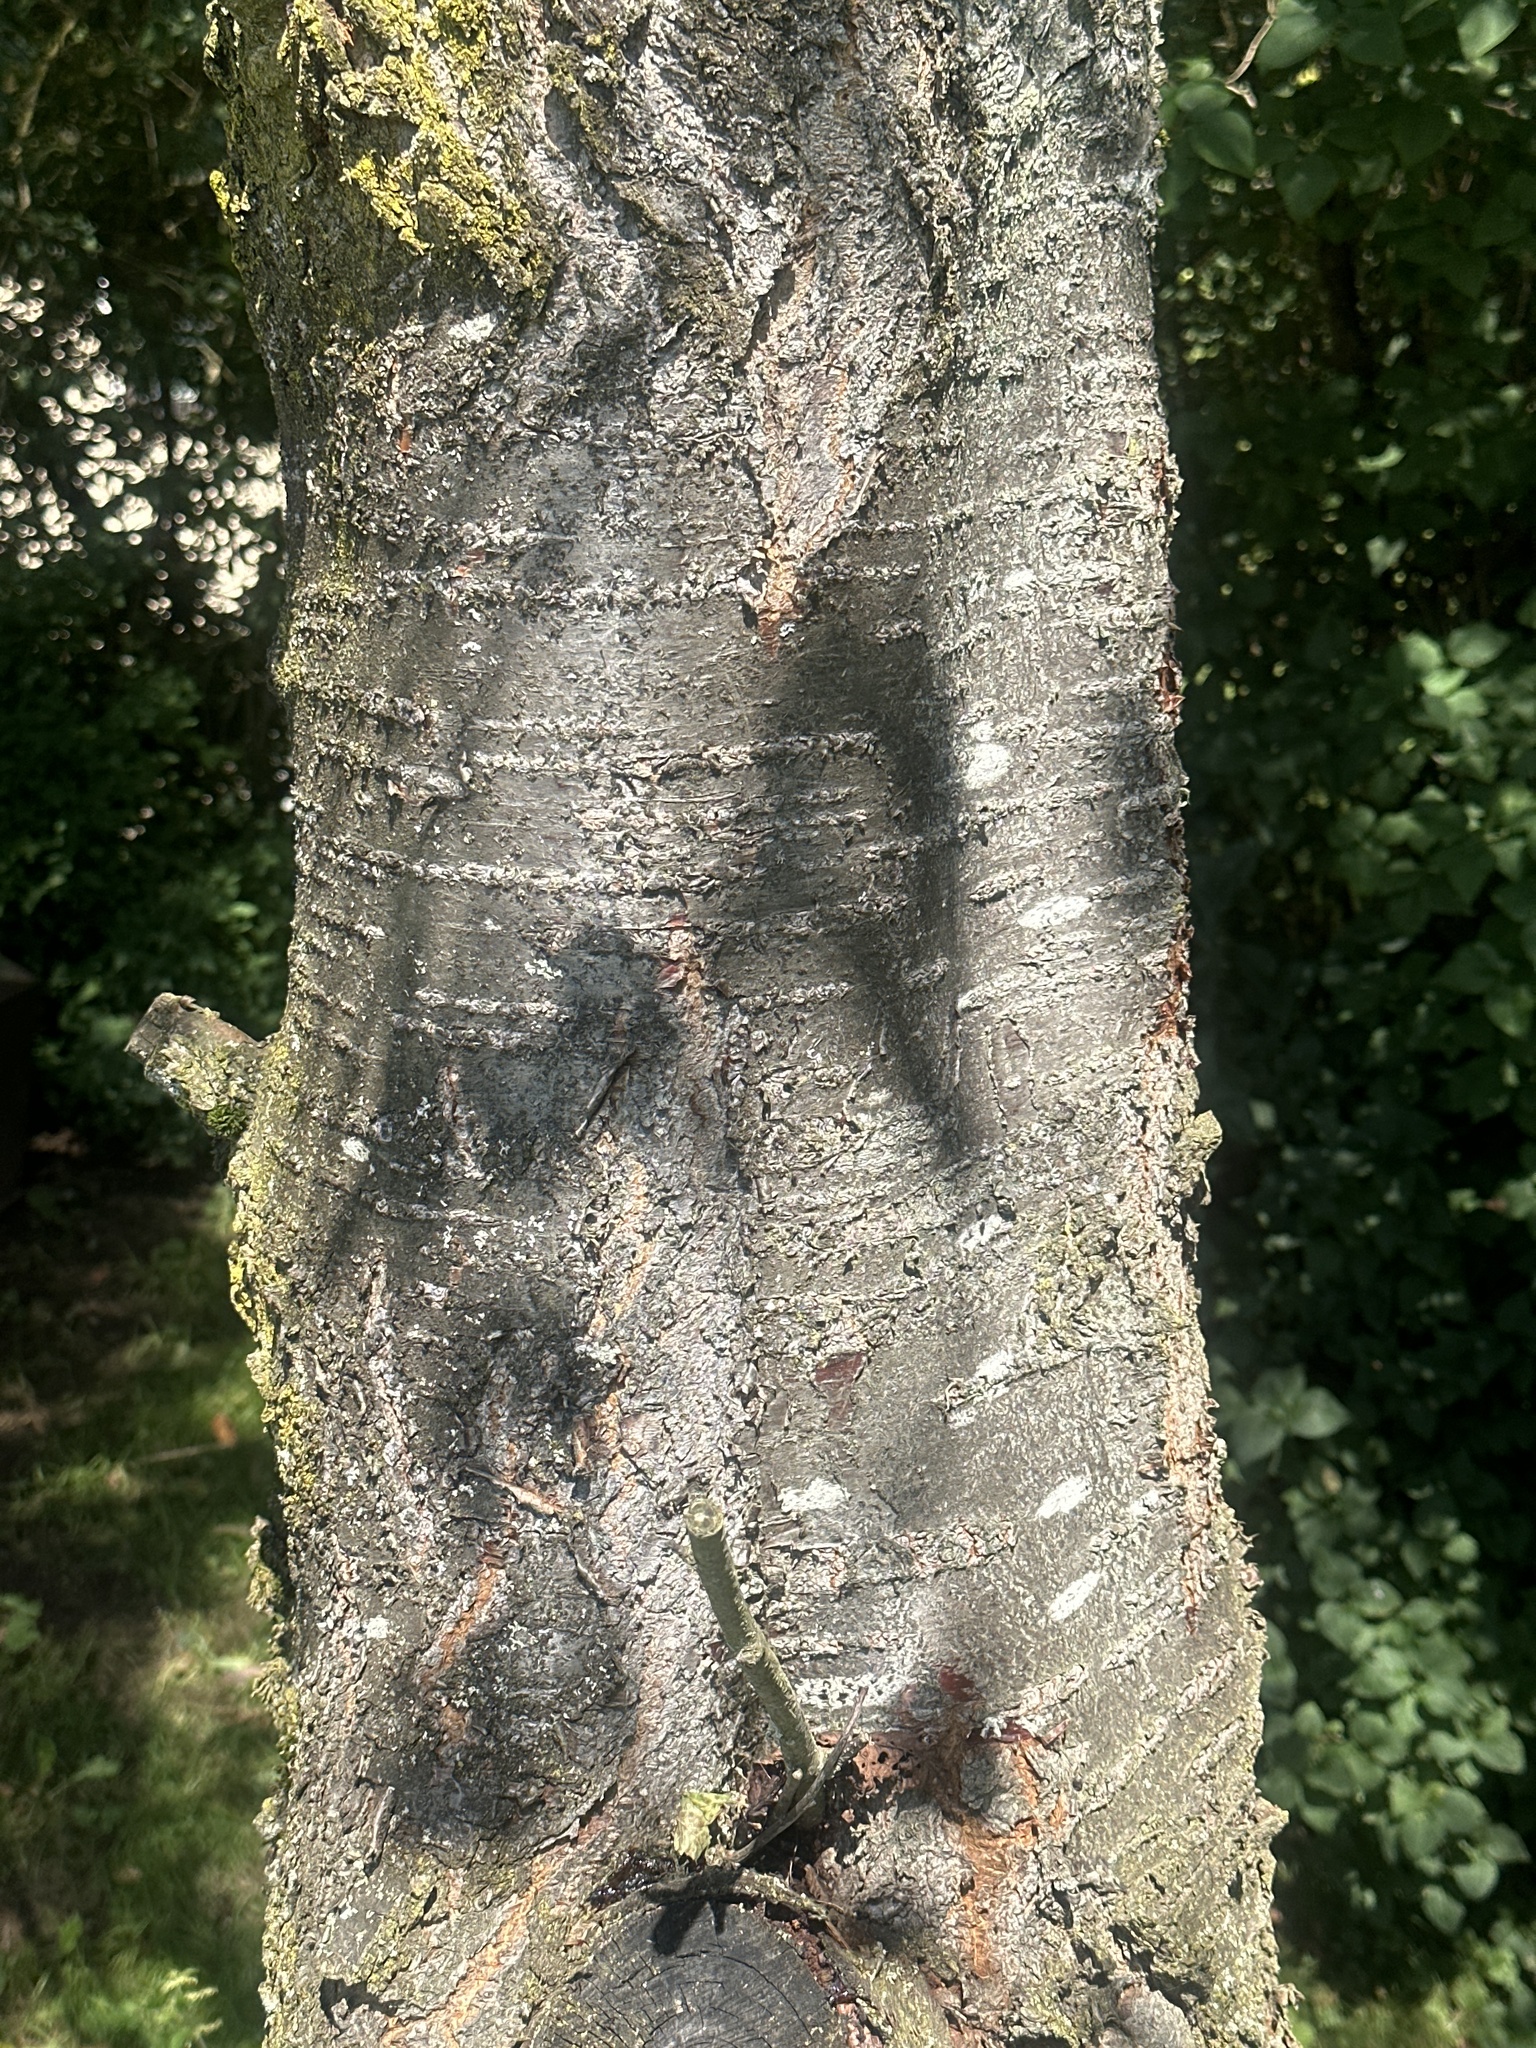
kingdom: Plantae
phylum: Tracheophyta
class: Magnoliopsida
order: Rosales
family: Rosaceae
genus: Prunus
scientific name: Prunus avium
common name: Sweet cherry
